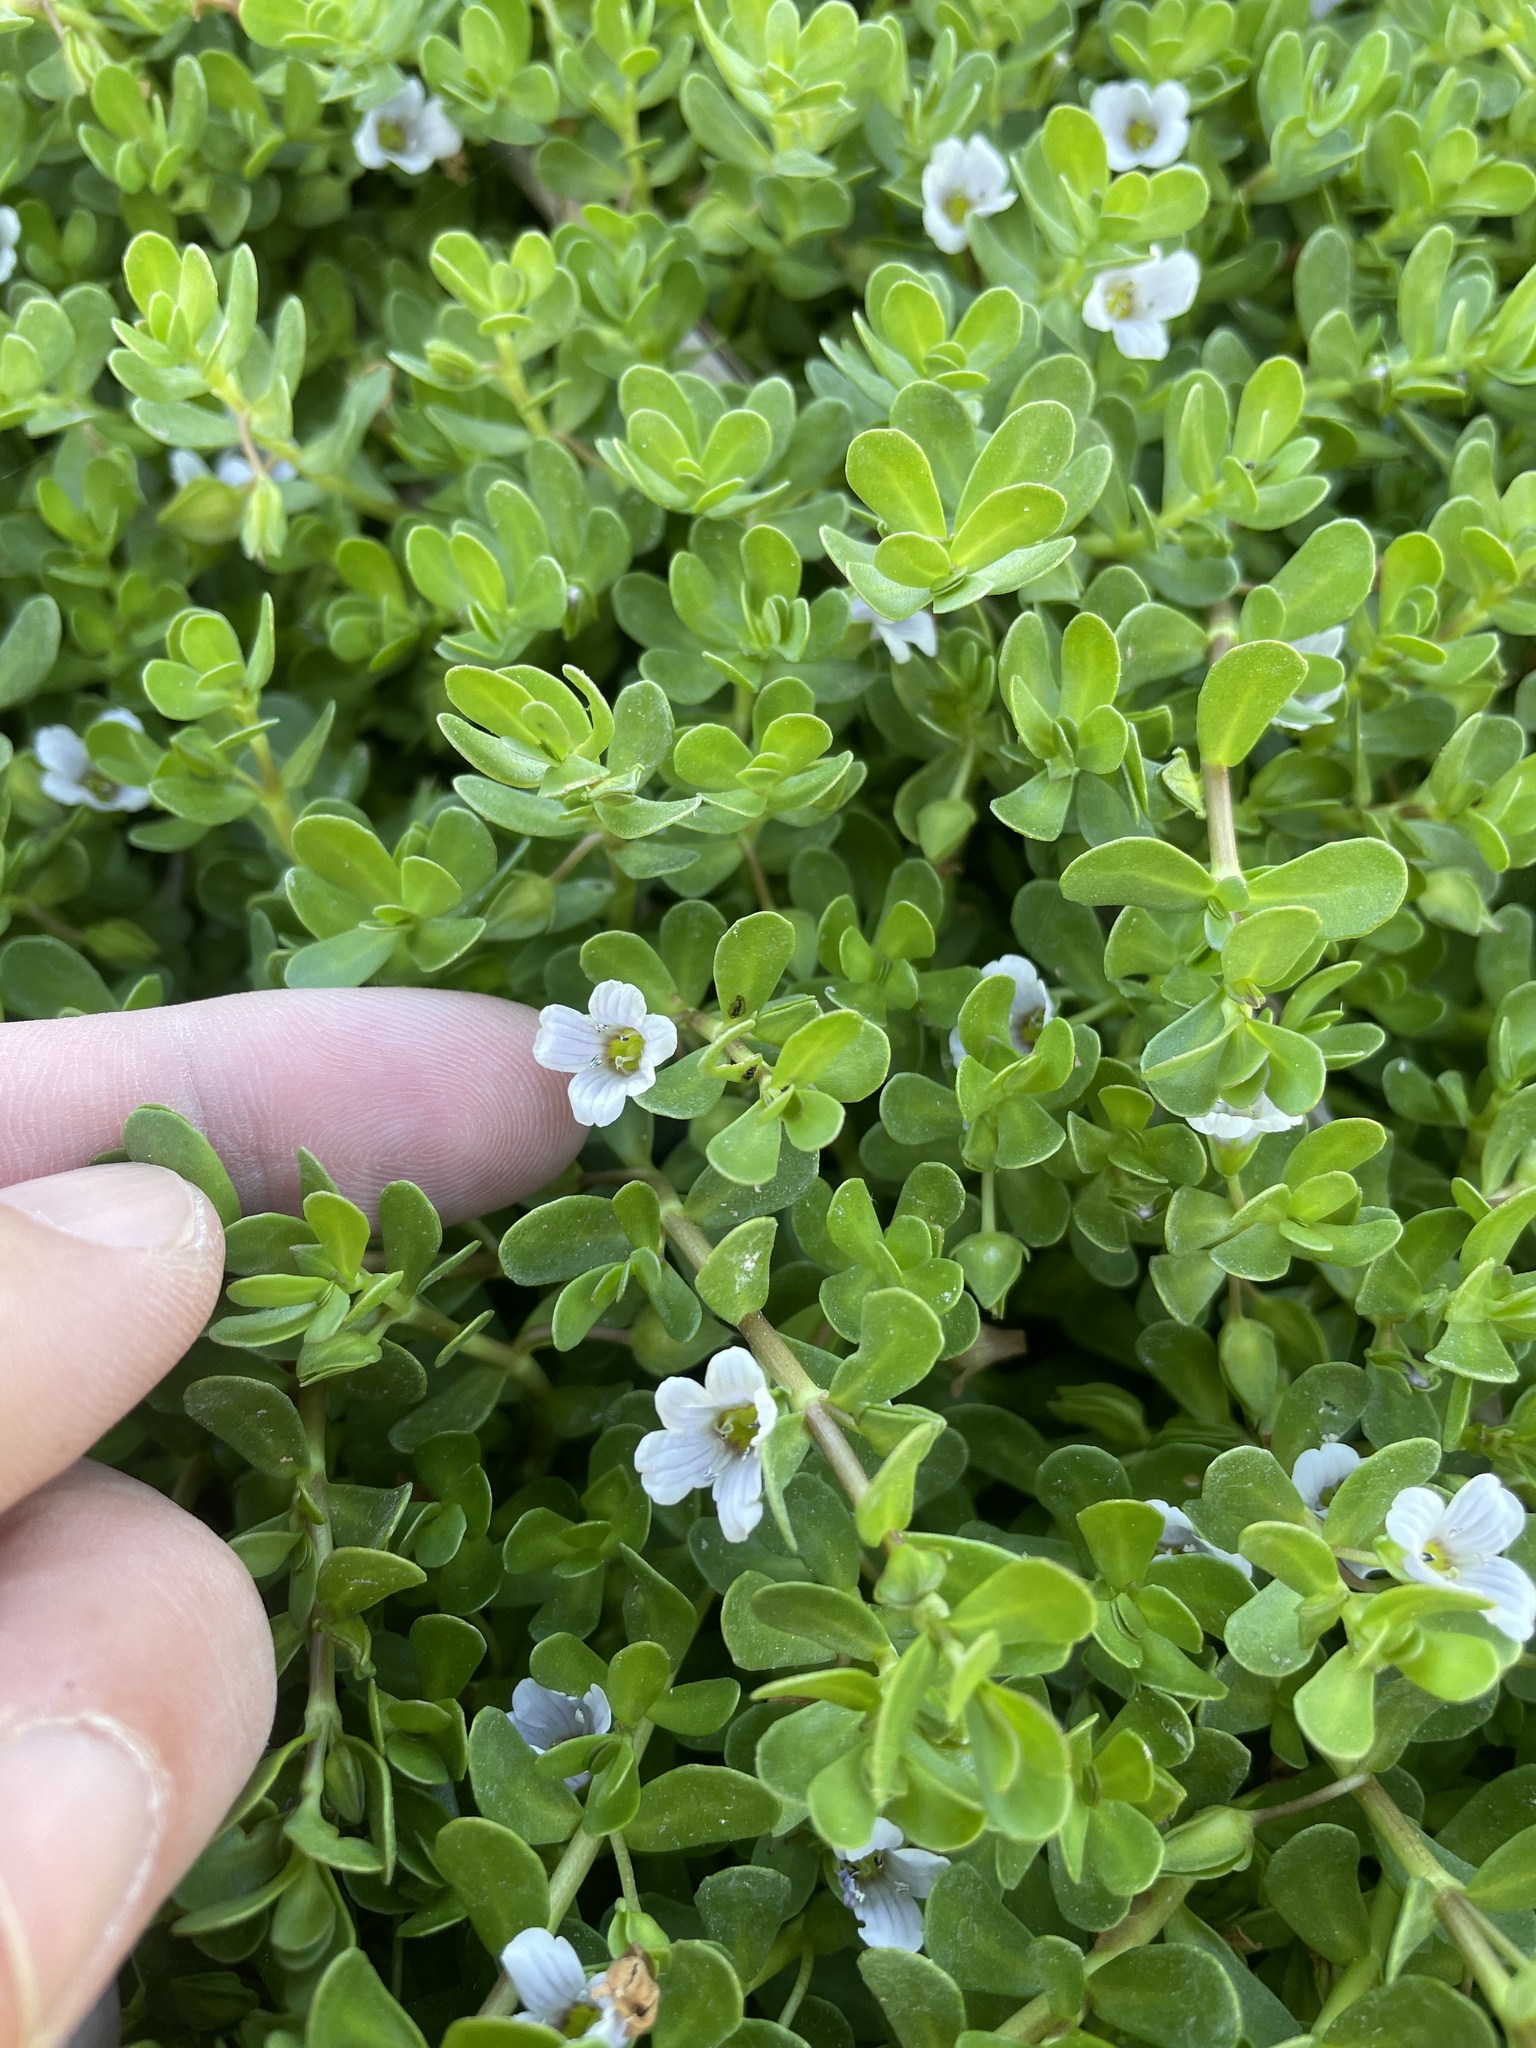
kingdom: Plantae
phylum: Tracheophyta
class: Magnoliopsida
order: Lamiales
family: Plantaginaceae
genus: Bacopa
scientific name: Bacopa monnieri
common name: Indian-pennywort
